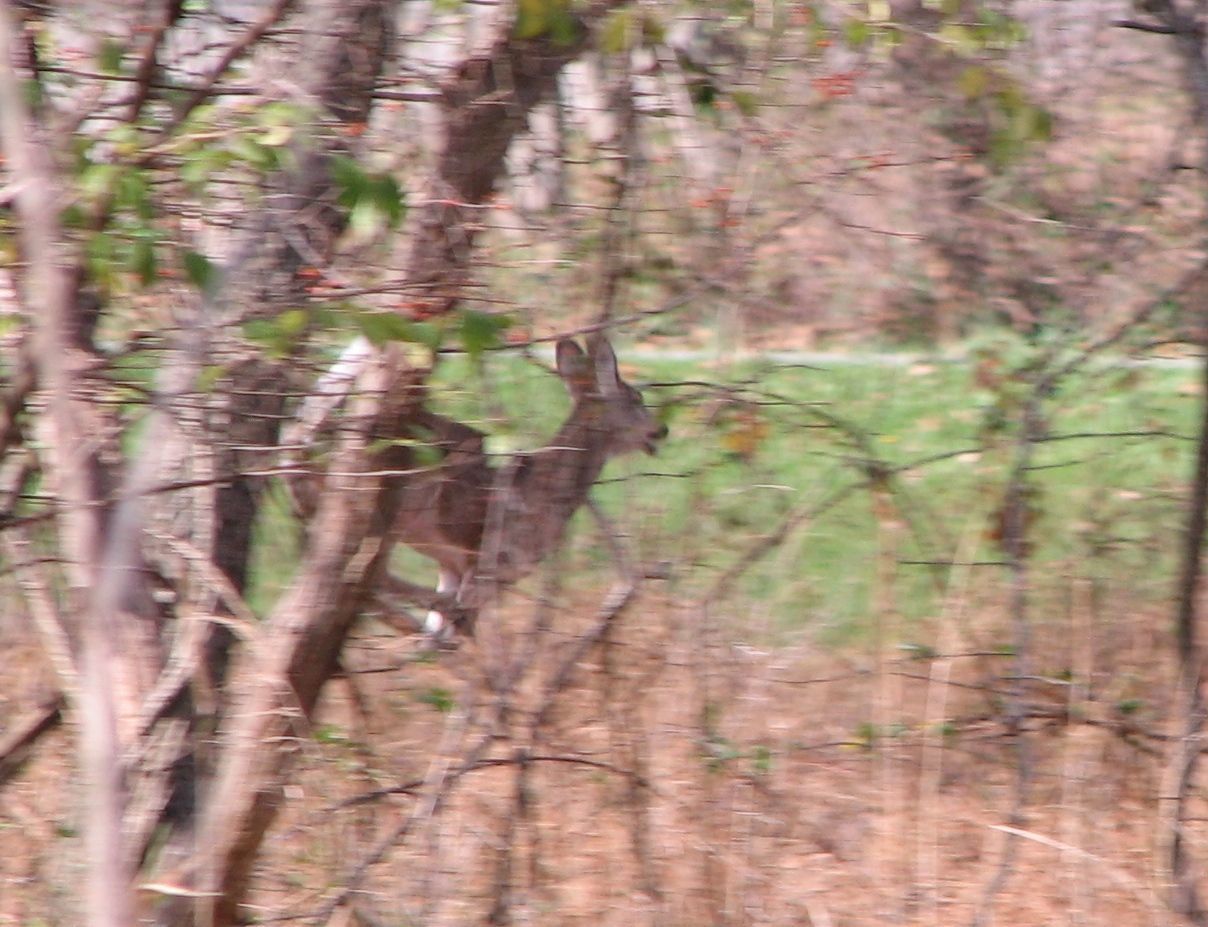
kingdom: Animalia
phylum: Chordata
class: Mammalia
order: Artiodactyla
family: Cervidae
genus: Odocoileus
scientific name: Odocoileus virginianus
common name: White-tailed deer
